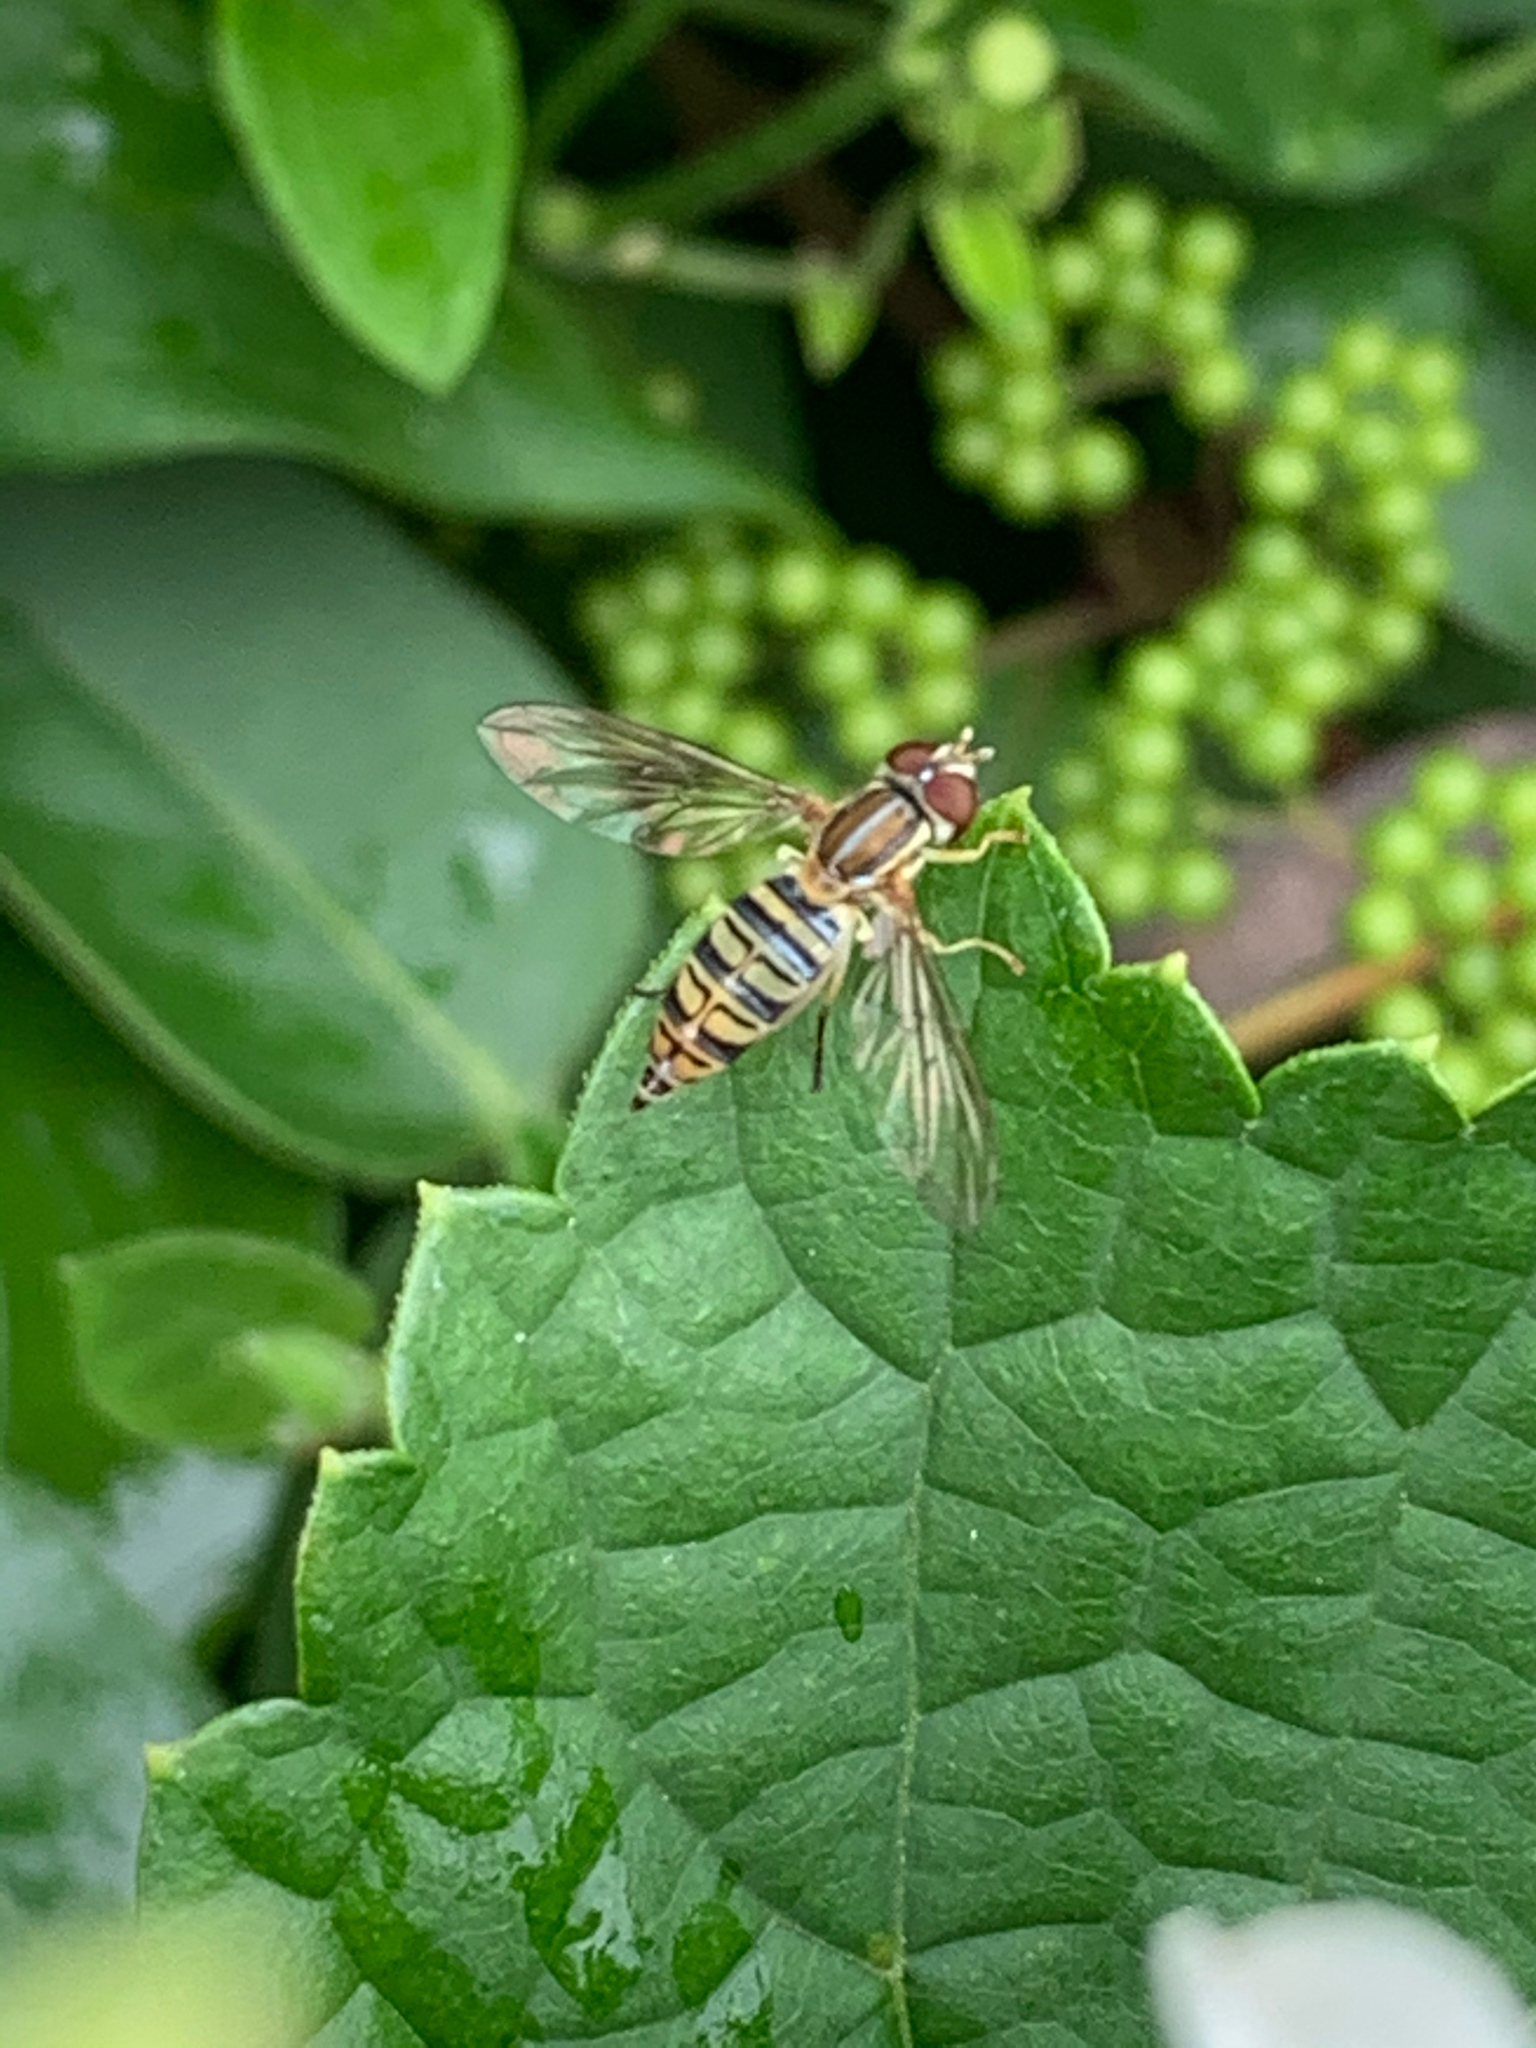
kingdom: Animalia
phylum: Arthropoda
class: Insecta
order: Diptera
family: Syrphidae
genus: Toxomerus
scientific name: Toxomerus politus
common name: Maize calligrapher
